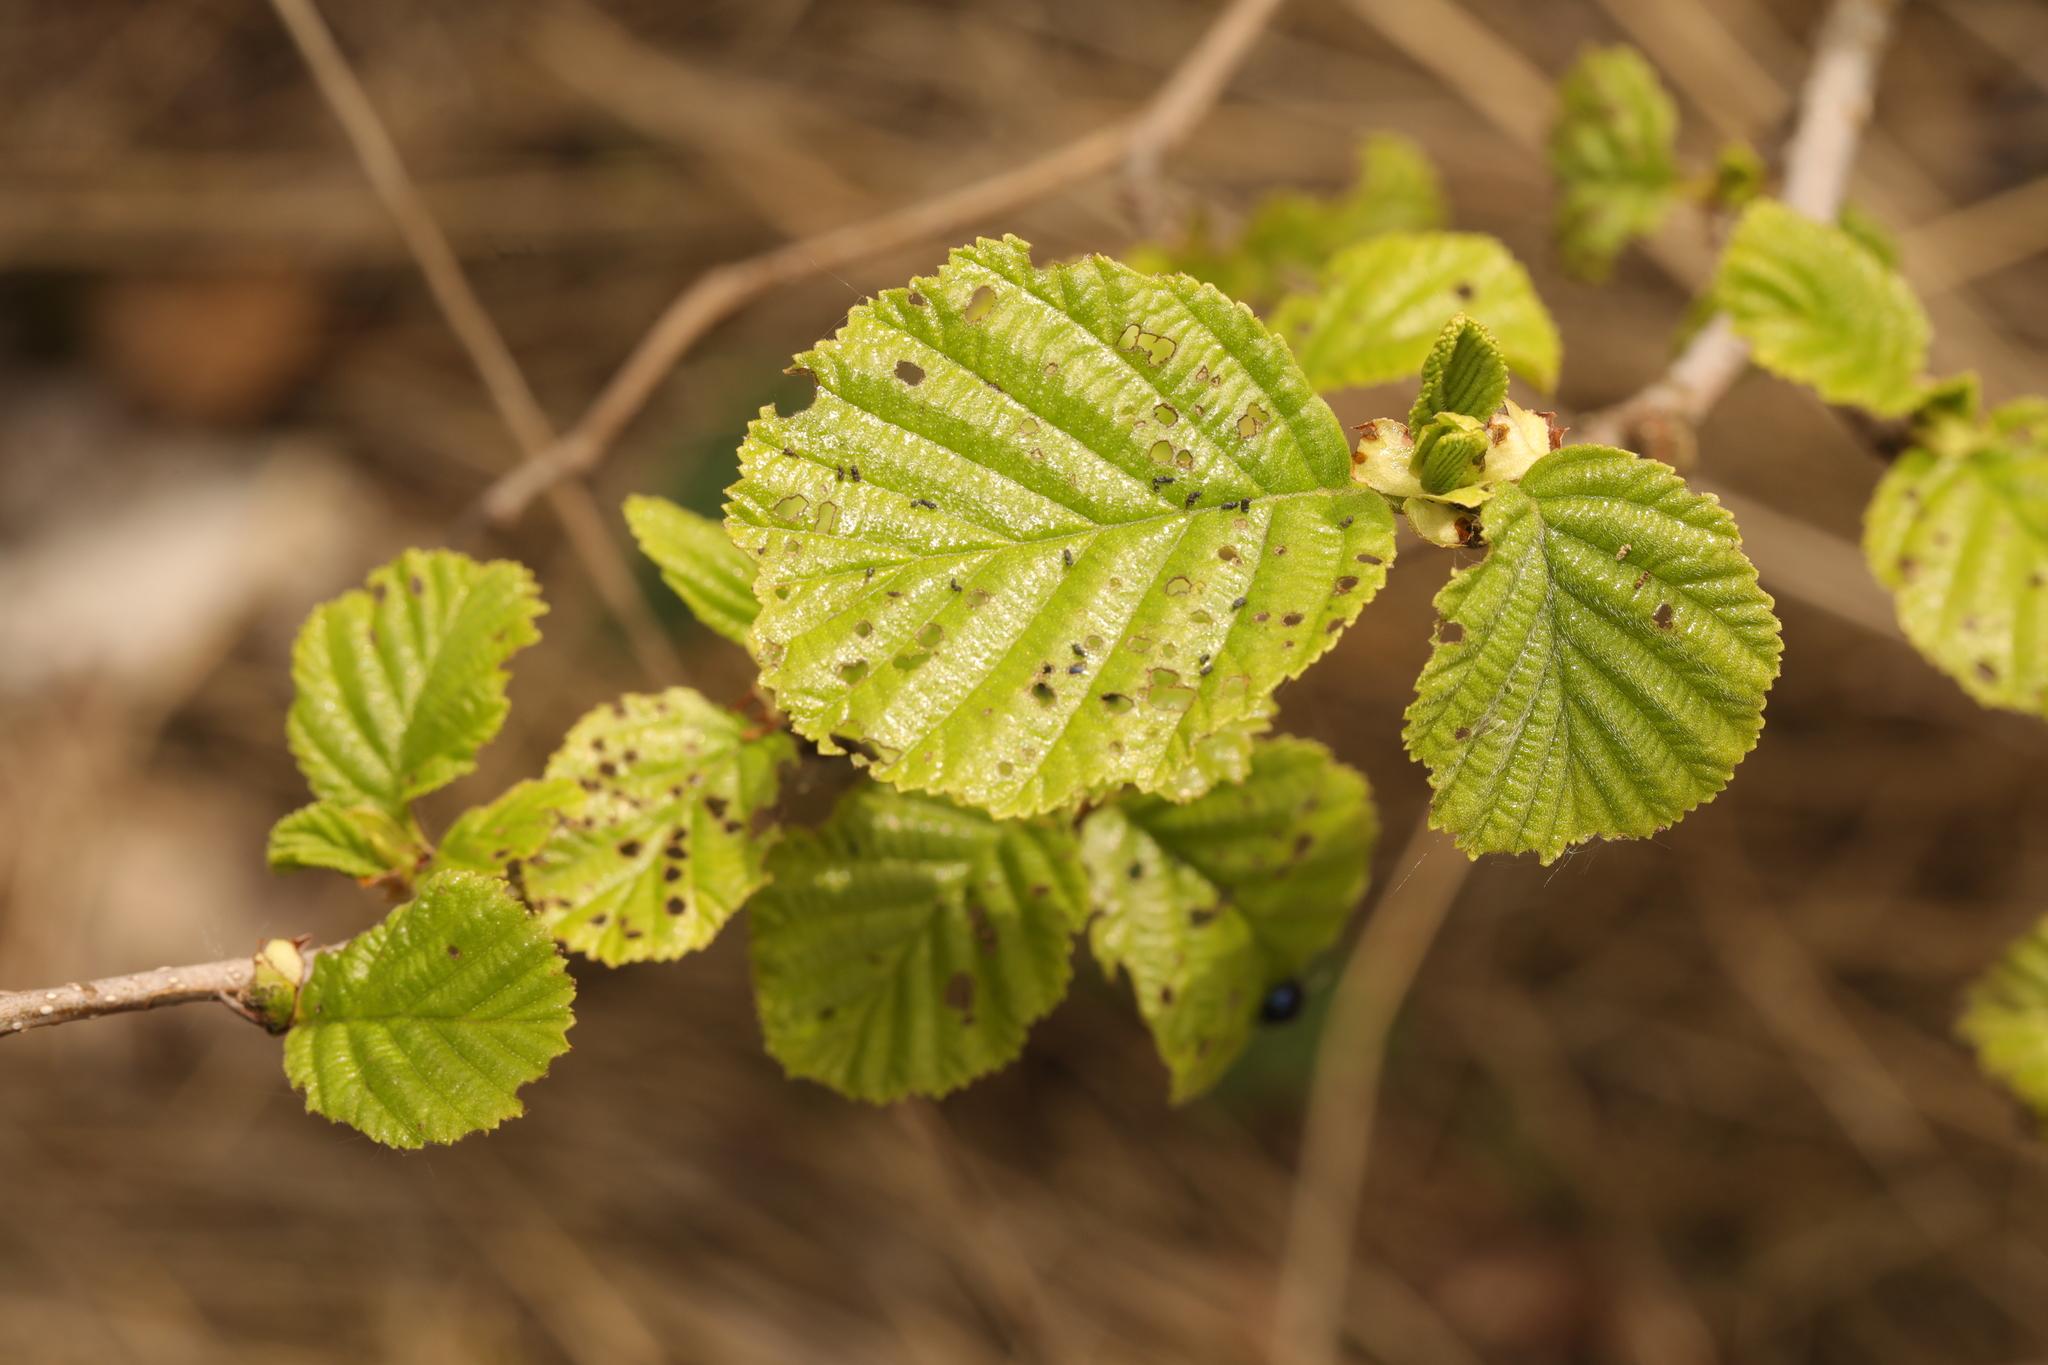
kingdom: Plantae
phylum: Tracheophyta
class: Magnoliopsida
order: Fagales
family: Betulaceae
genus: Alnus
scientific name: Alnus glutinosa
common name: Black alder
